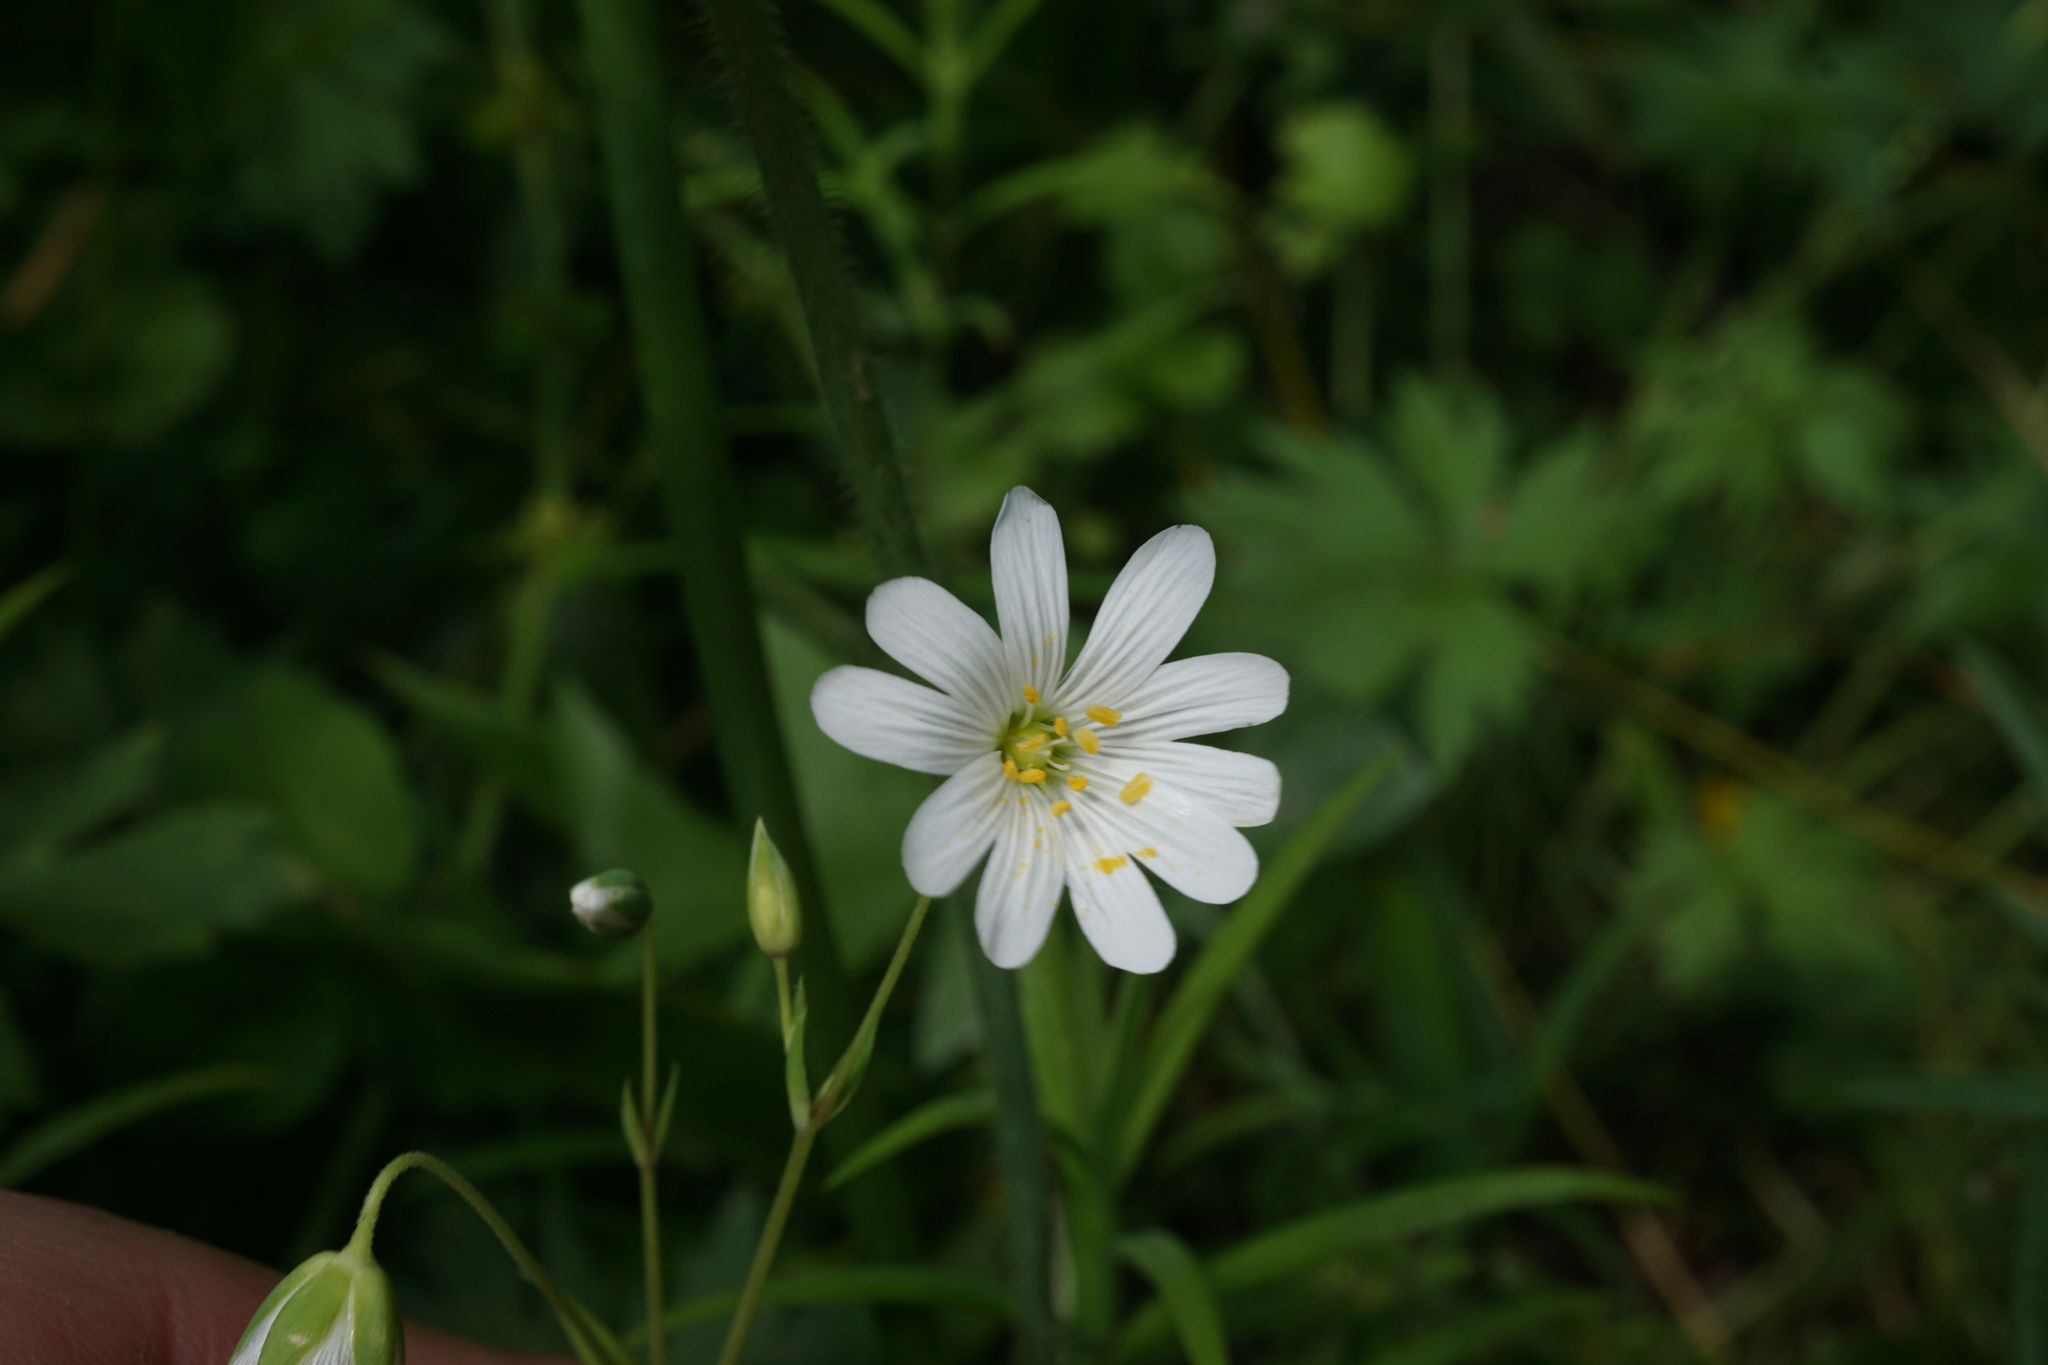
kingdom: Plantae
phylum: Tracheophyta
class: Magnoliopsida
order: Caryophyllales
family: Caryophyllaceae
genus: Rabelera
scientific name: Rabelera holostea
